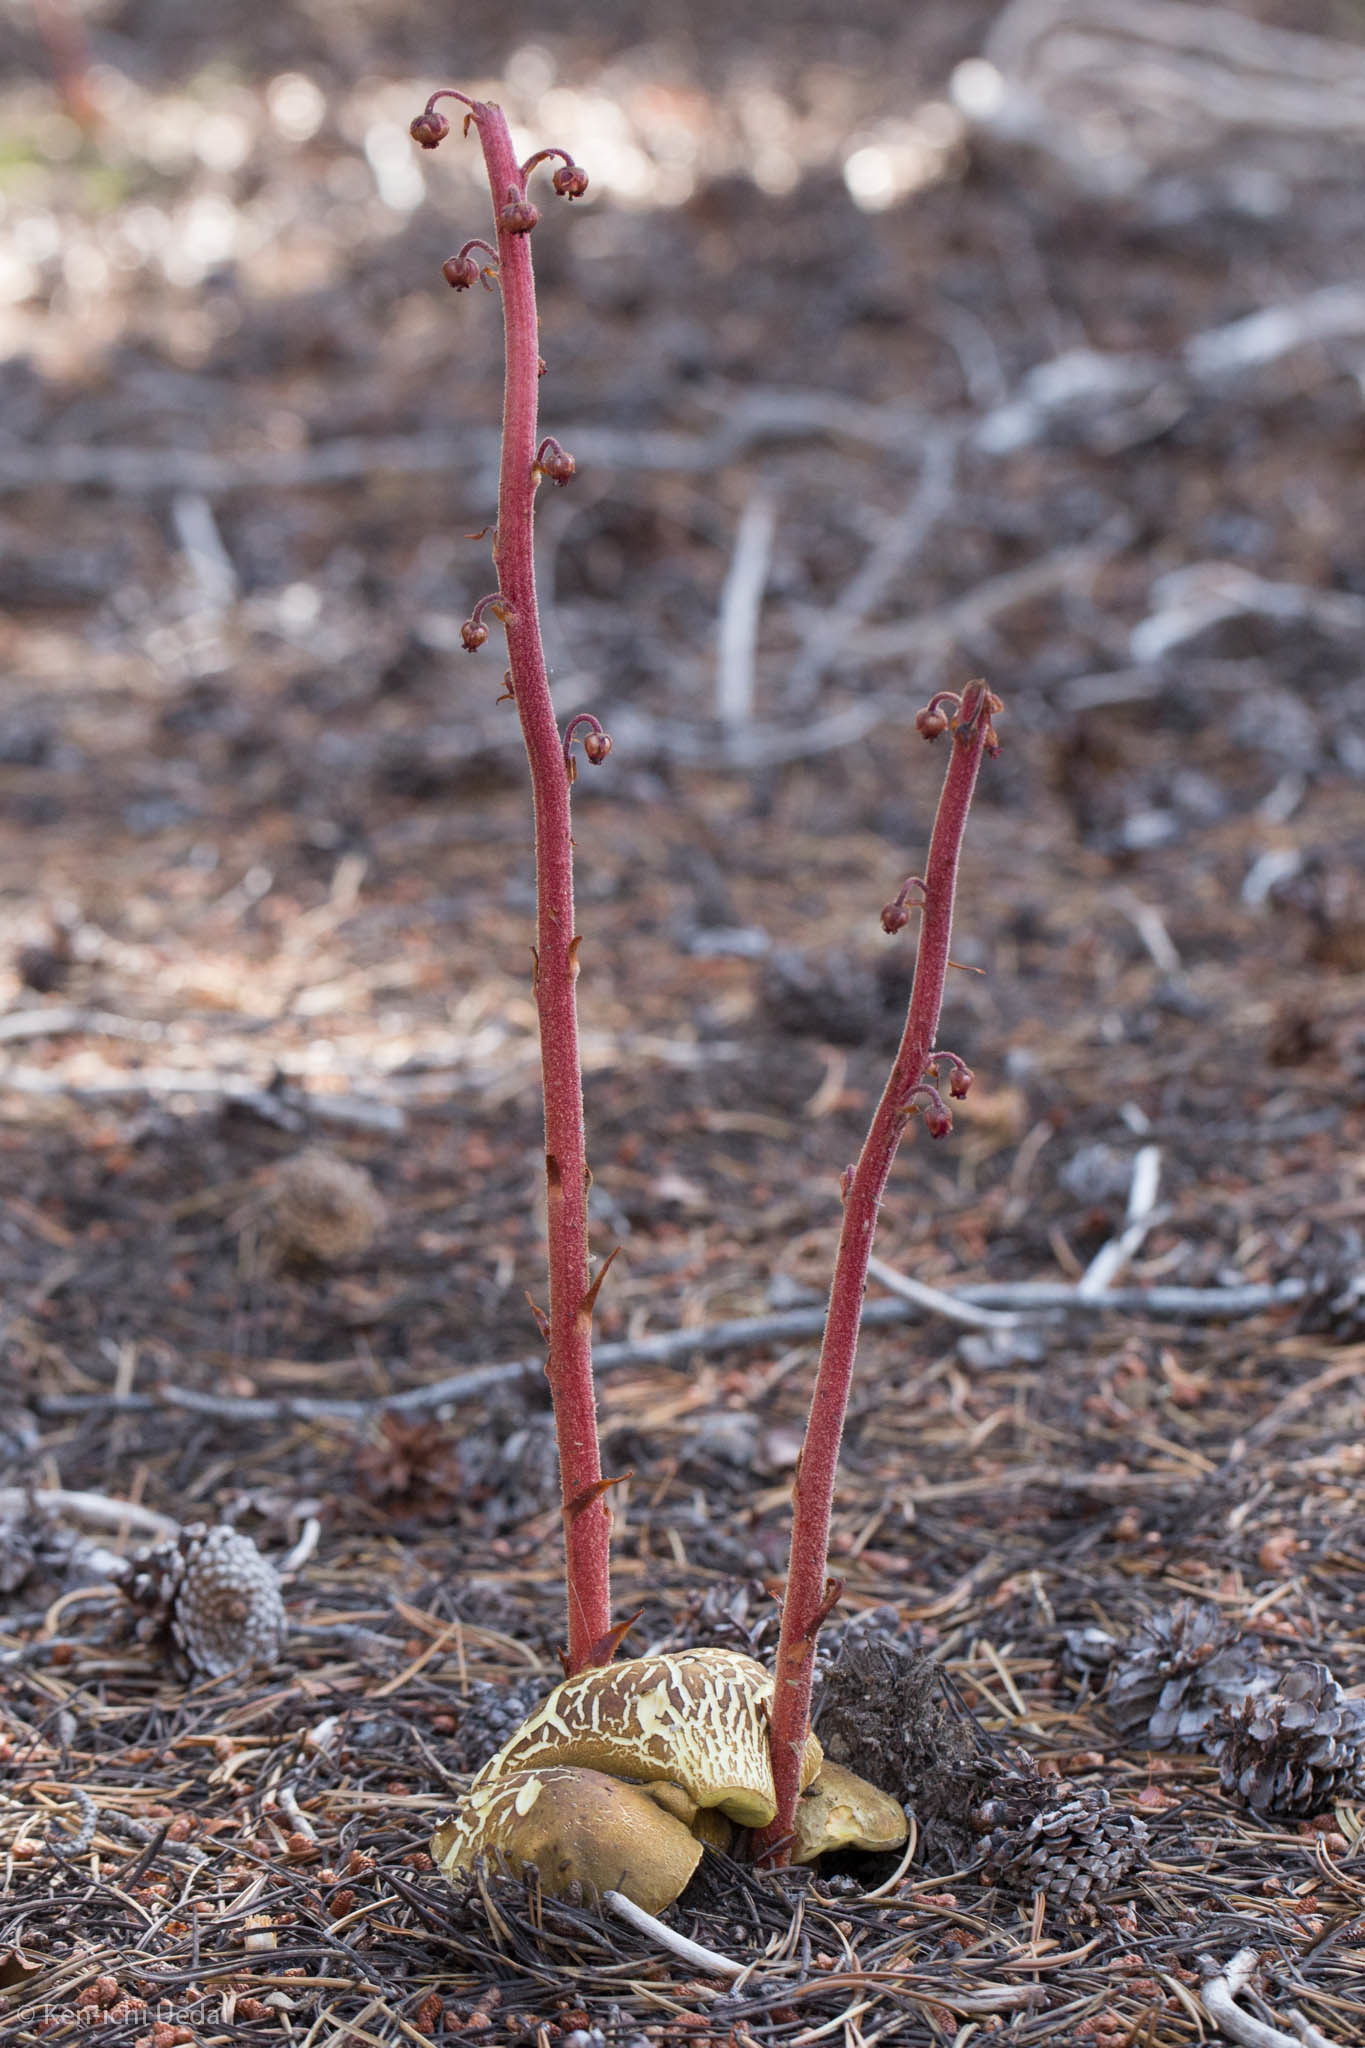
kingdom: Fungi
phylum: Basidiomycota
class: Agaricomycetes
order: Boletales
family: Boletaceae
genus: Boletus
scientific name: Boletus fibrillosus
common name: Fib king
